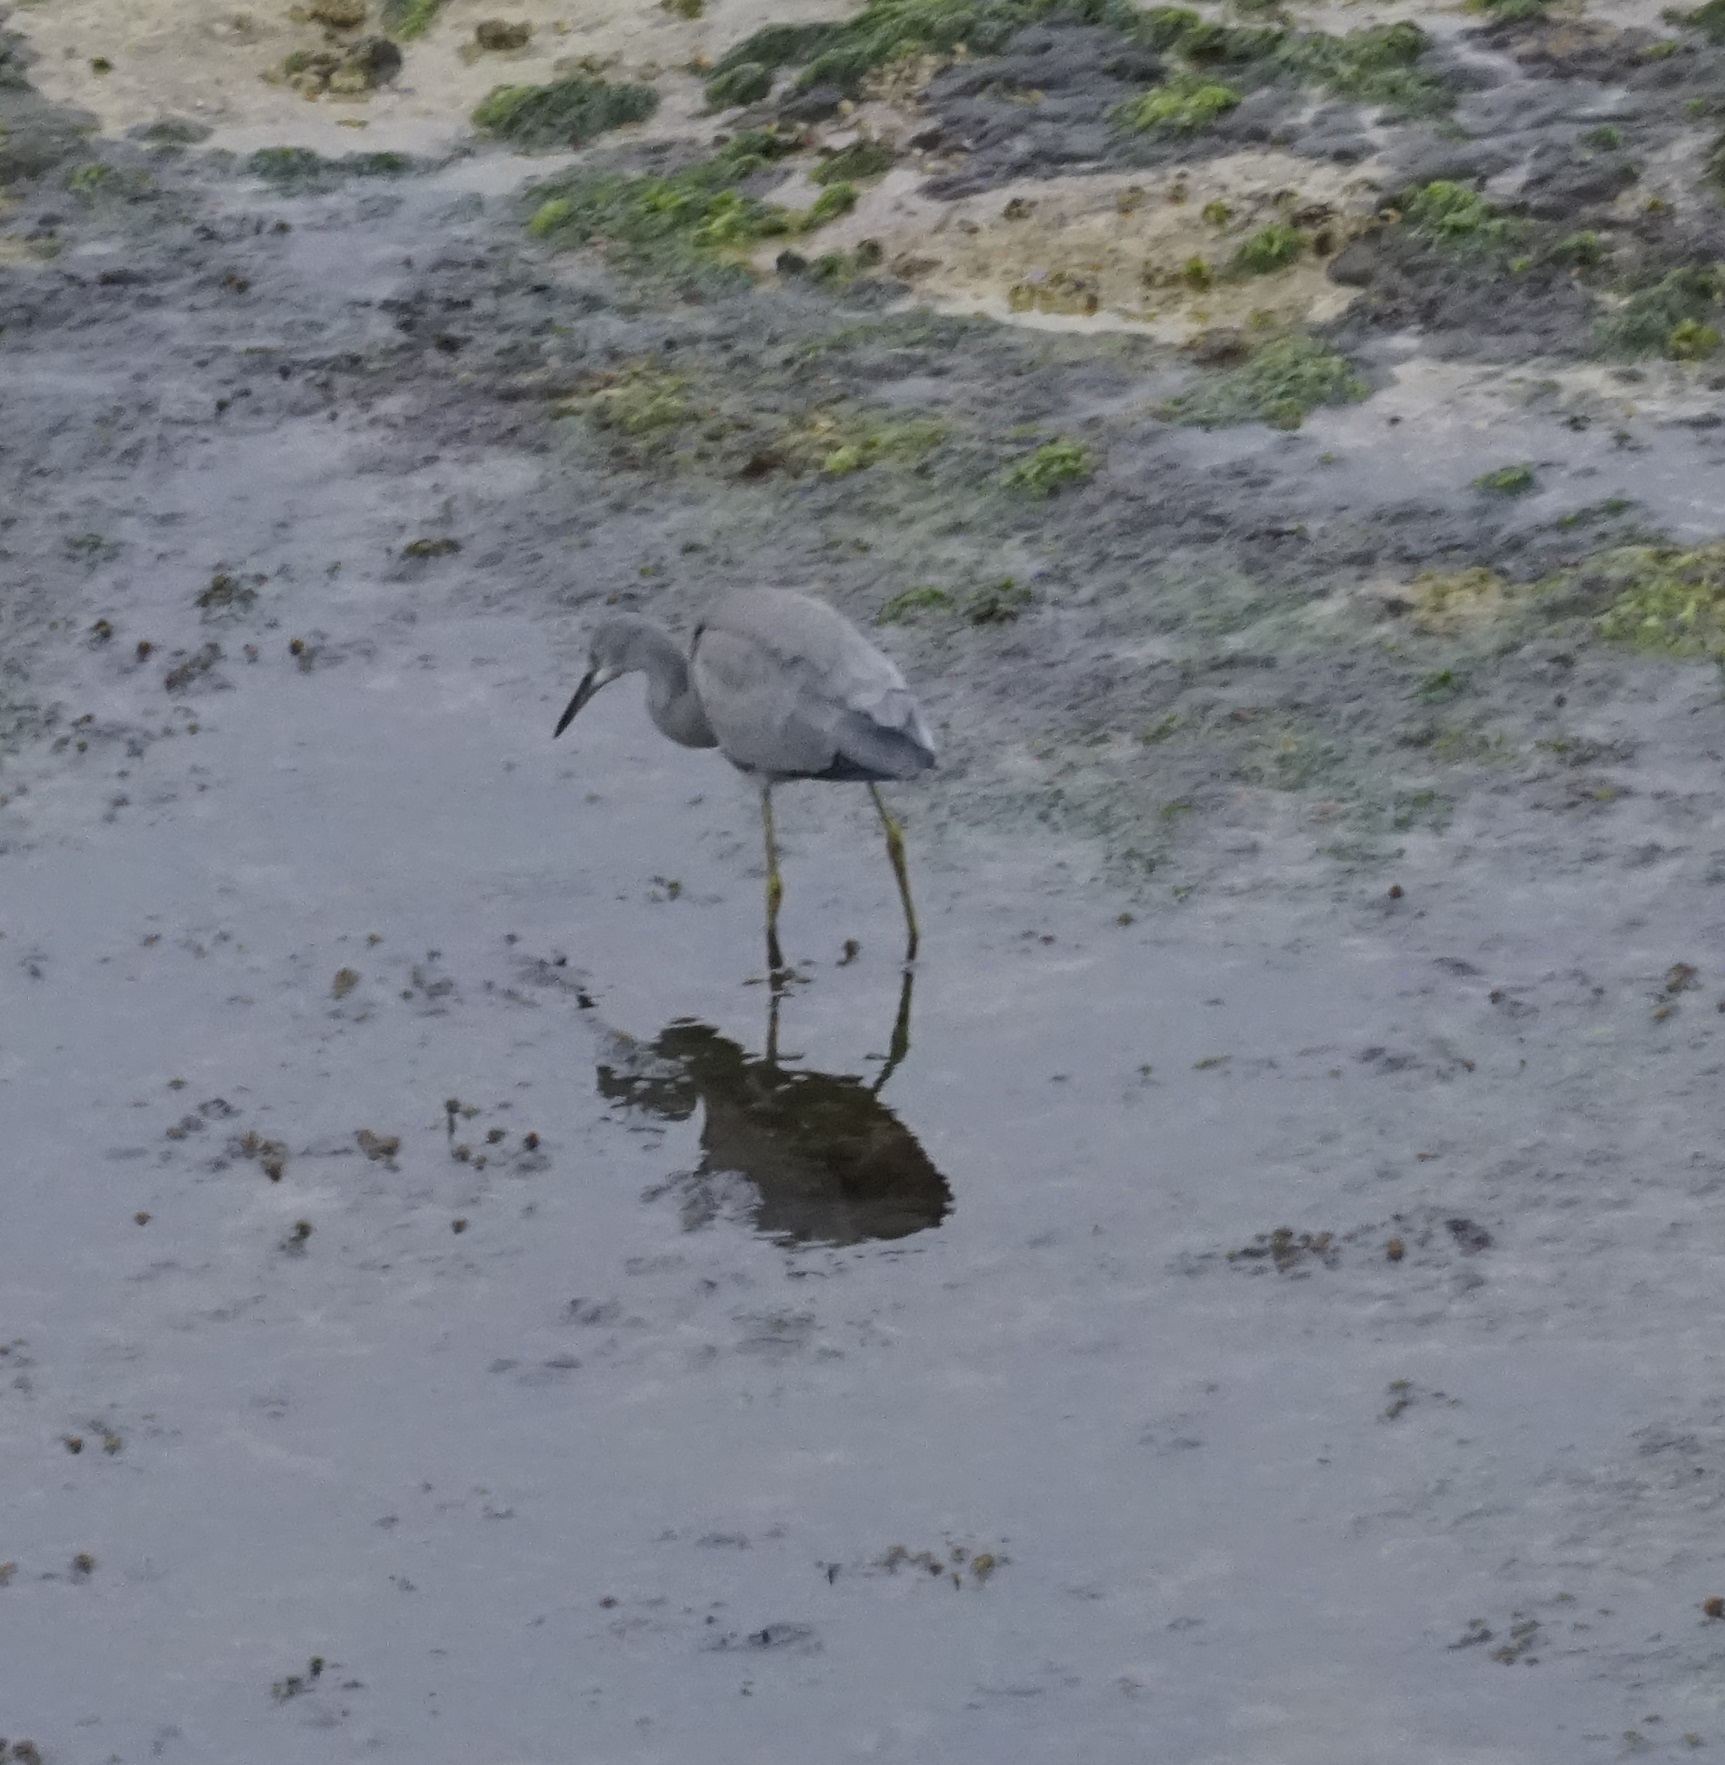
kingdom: Animalia
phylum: Chordata
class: Aves
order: Pelecaniformes
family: Ardeidae
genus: Egretta
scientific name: Egretta novaehollandiae
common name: White-faced heron
